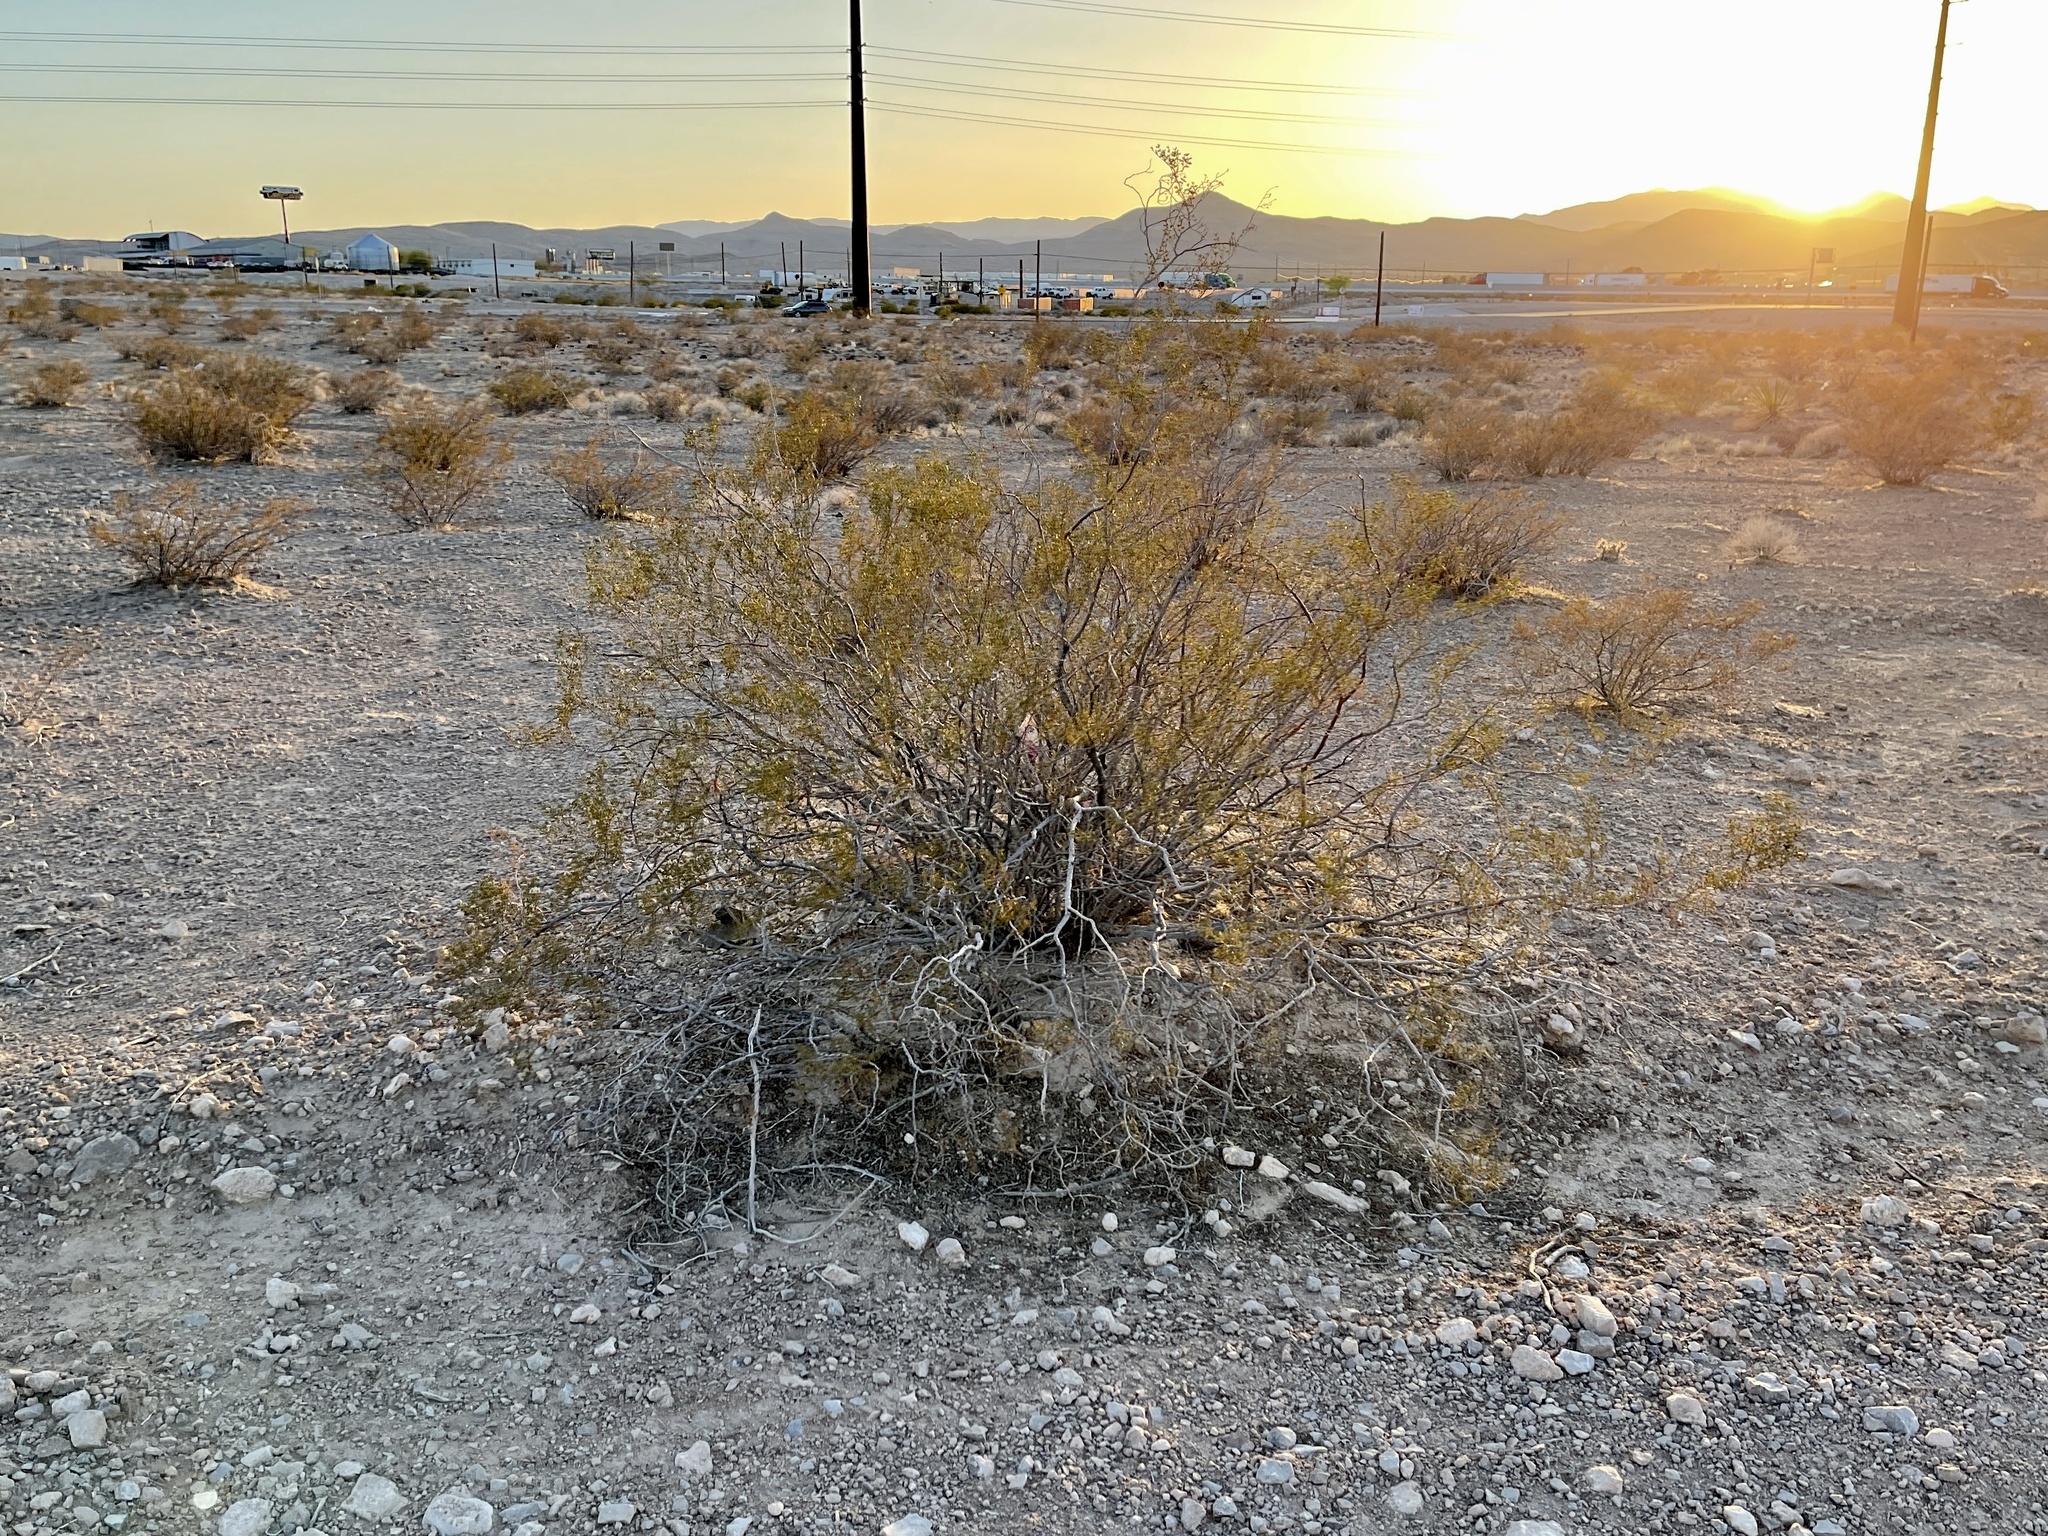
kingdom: Plantae
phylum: Tracheophyta
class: Magnoliopsida
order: Zygophyllales
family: Zygophyllaceae
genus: Larrea
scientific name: Larrea tridentata
